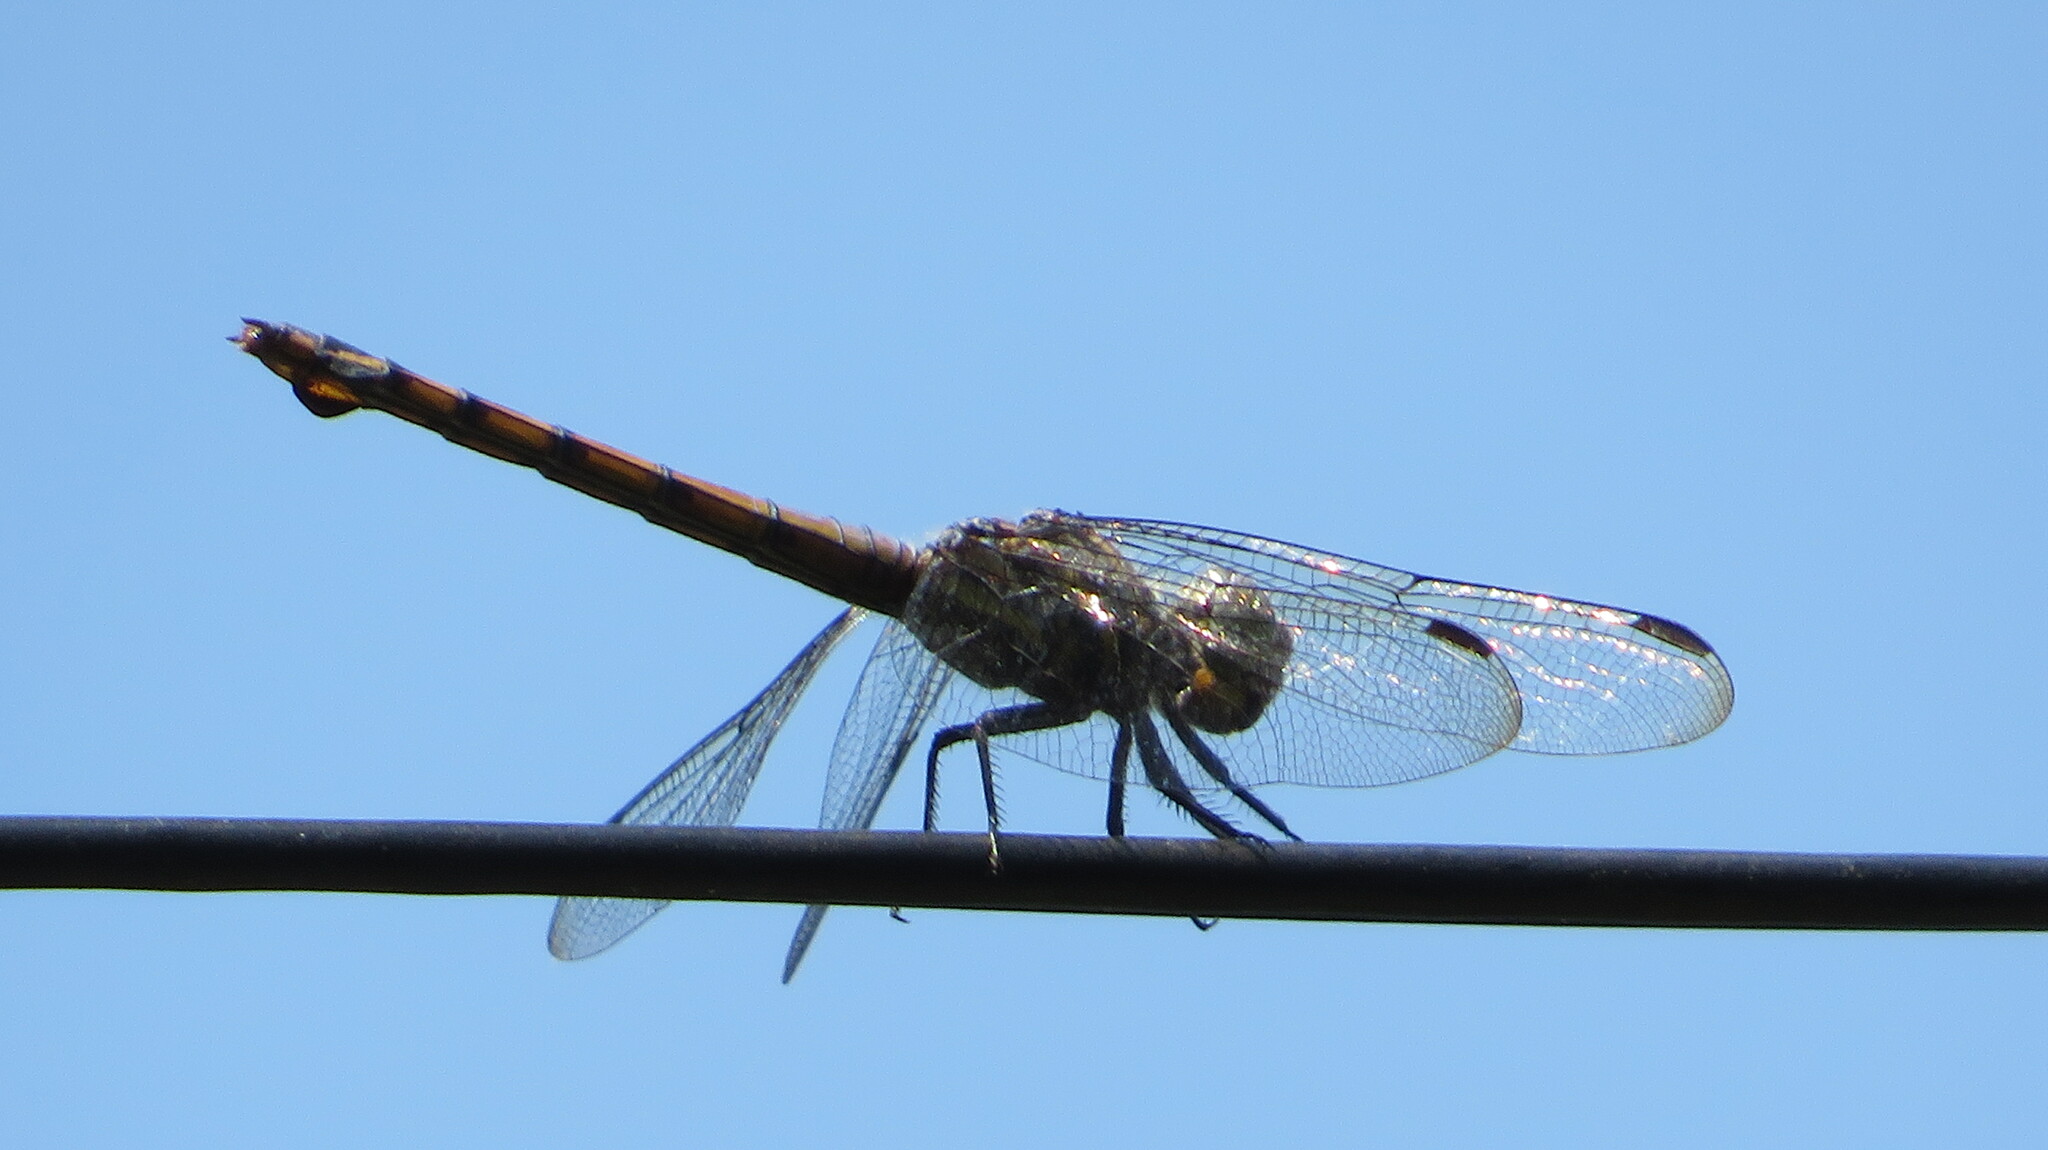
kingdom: Animalia
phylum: Arthropoda
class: Insecta
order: Odonata
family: Libellulidae
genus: Potamarcha
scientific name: Potamarcha congener
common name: Blue chaser
